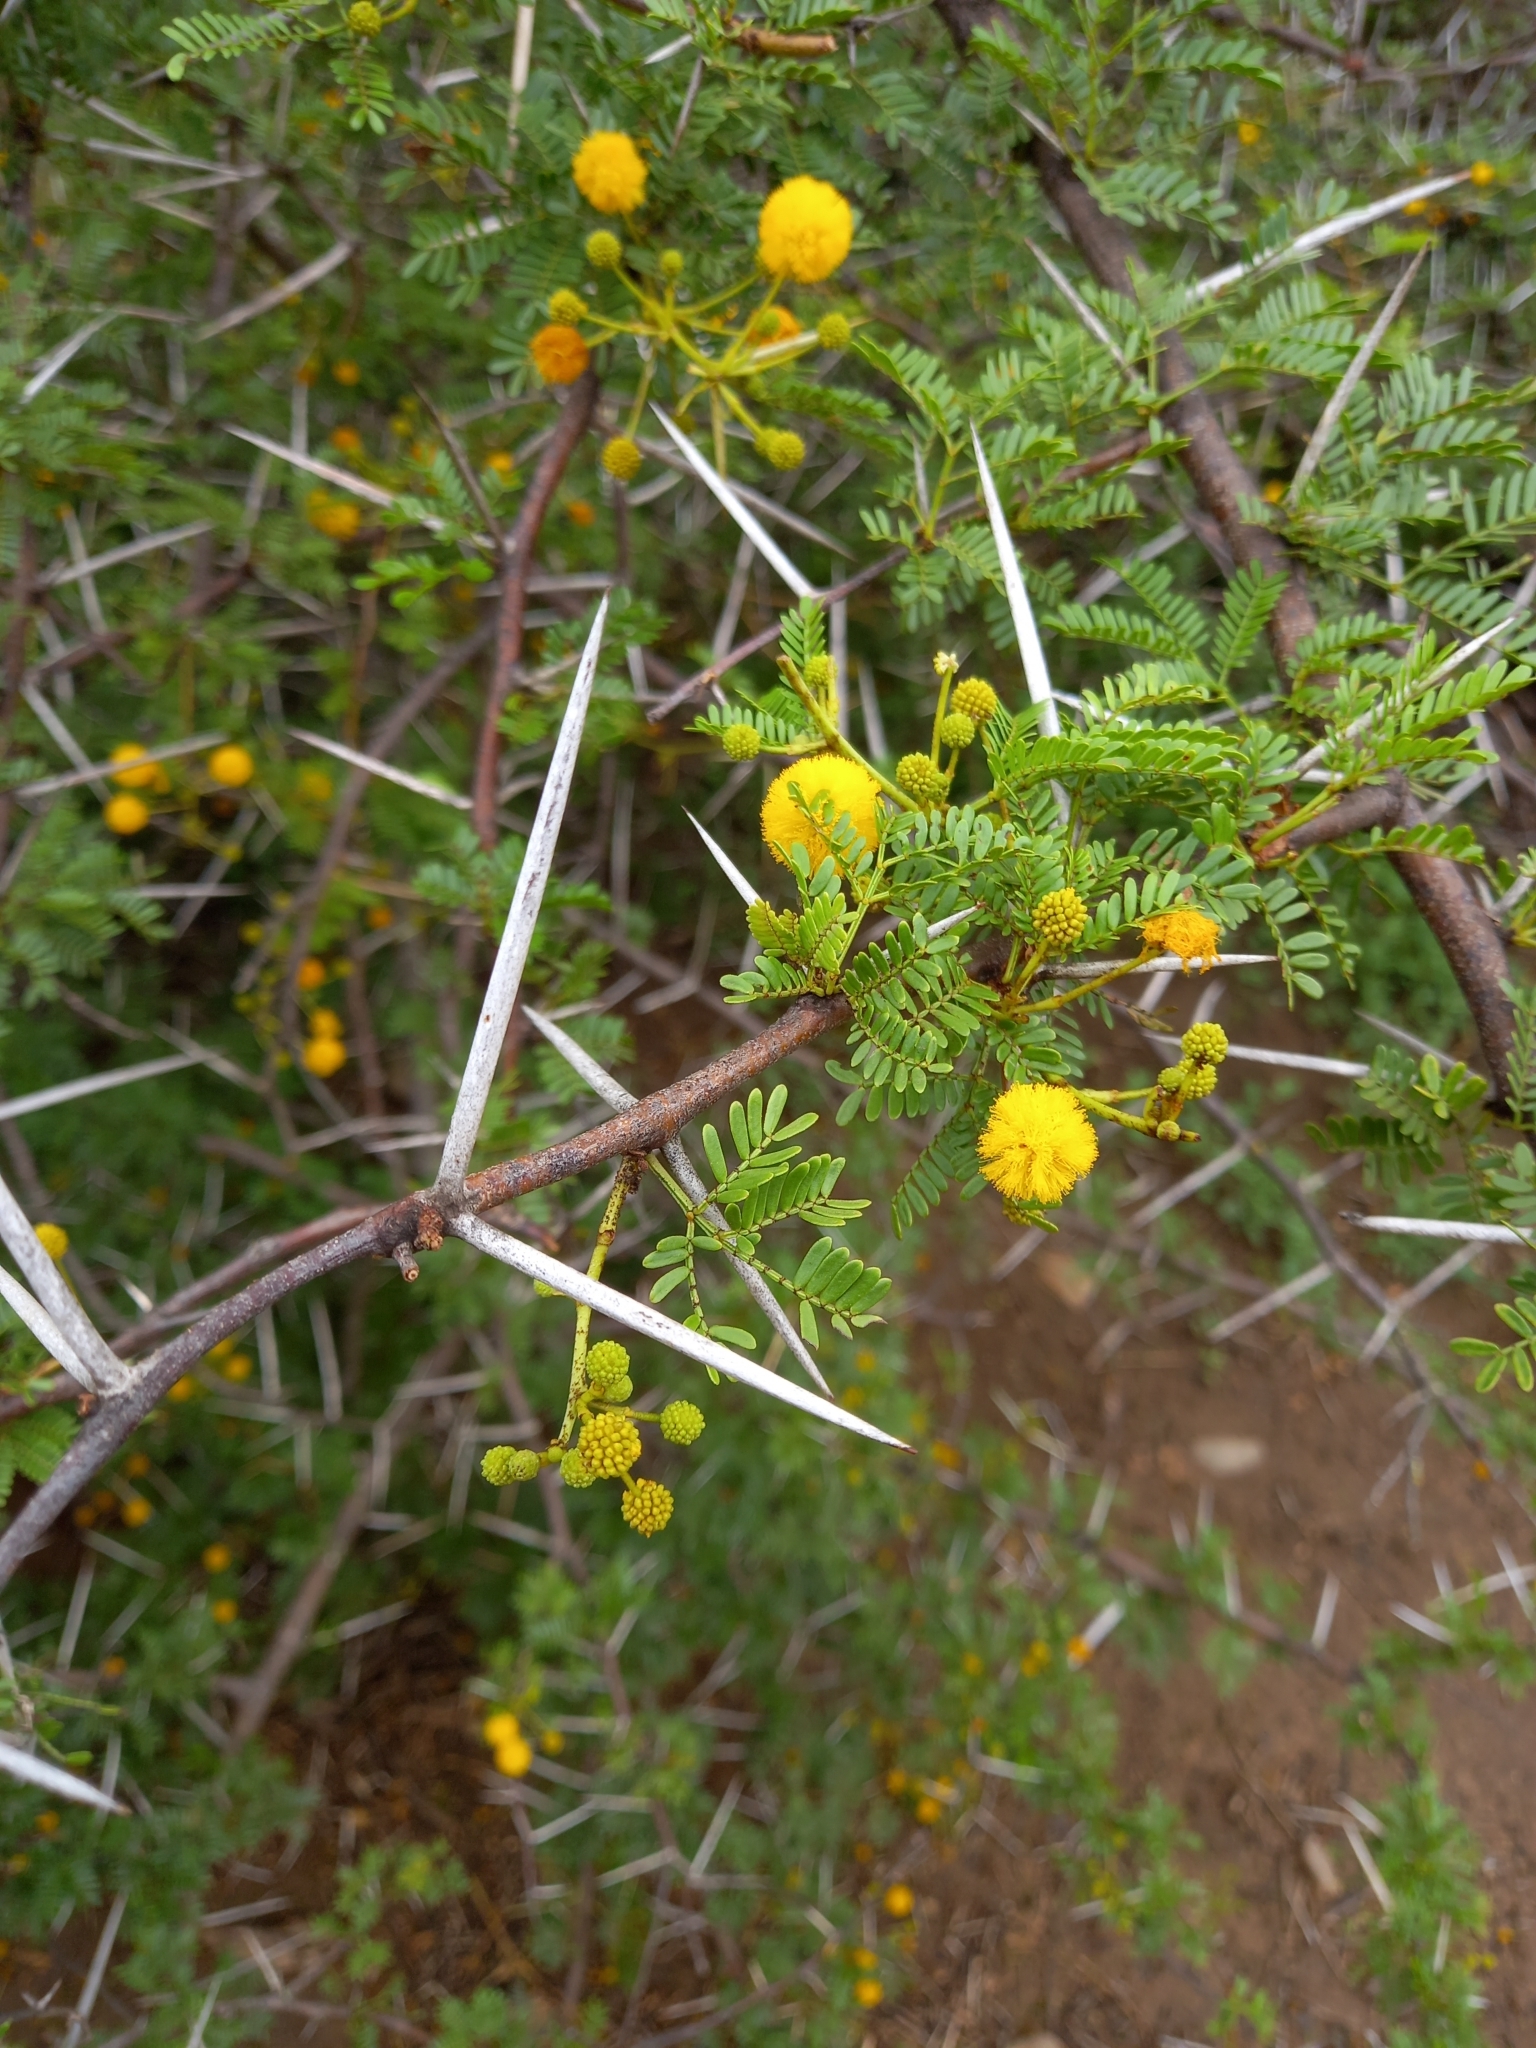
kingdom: Plantae
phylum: Tracheophyta
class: Magnoliopsida
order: Fabales
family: Fabaceae
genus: Vachellia
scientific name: Vachellia karroo
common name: Sweet thorn
